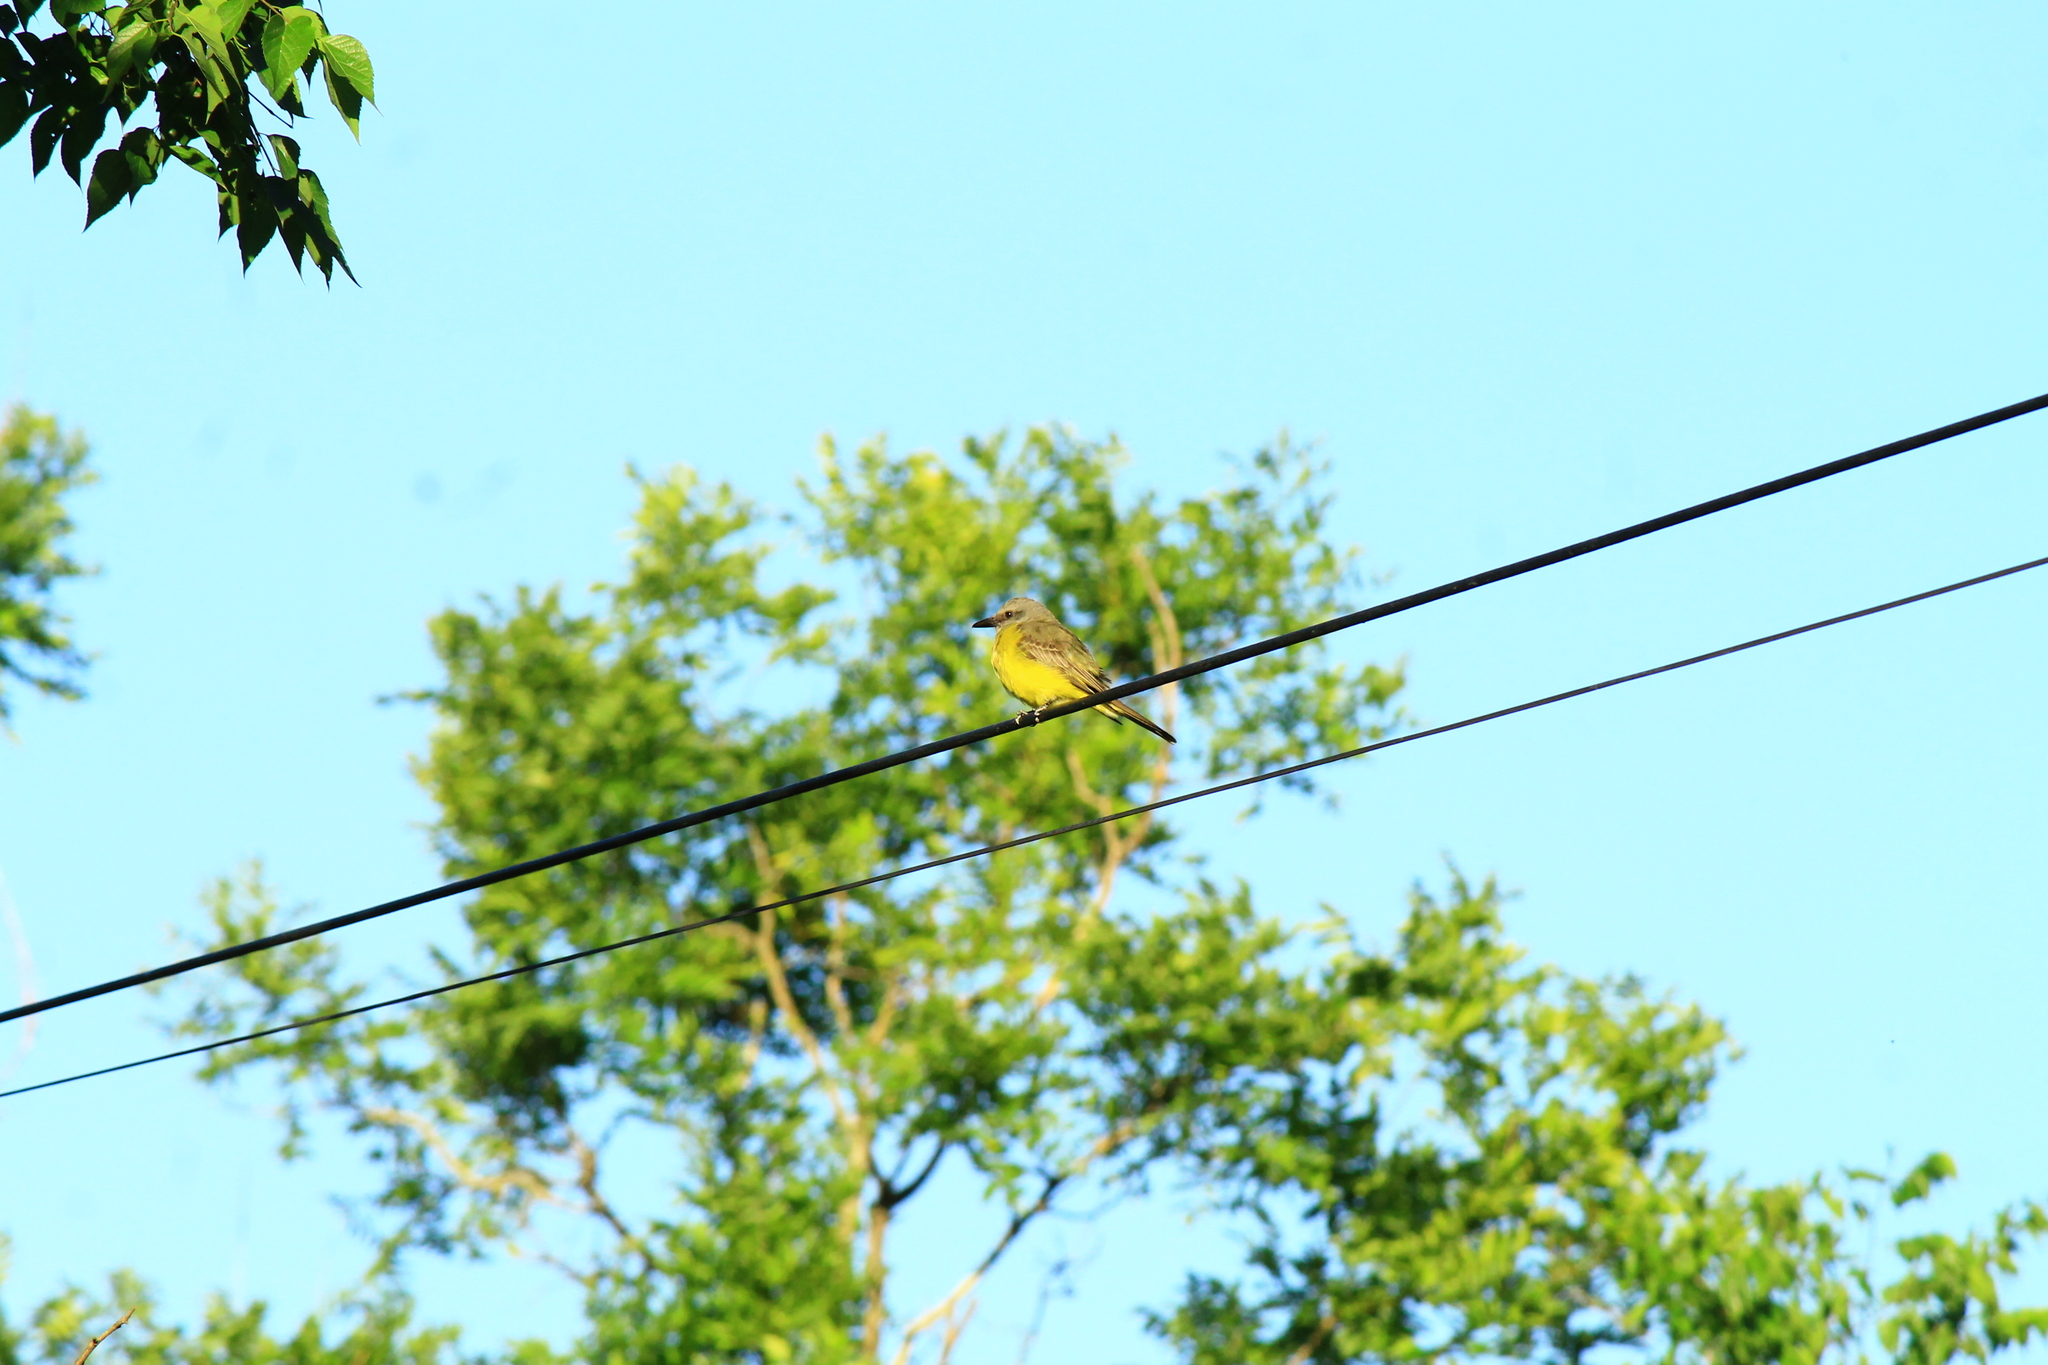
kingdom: Animalia
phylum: Chordata
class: Aves
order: Passeriformes
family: Tyrannidae
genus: Tyrannus
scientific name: Tyrannus melancholicus
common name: Tropical kingbird
